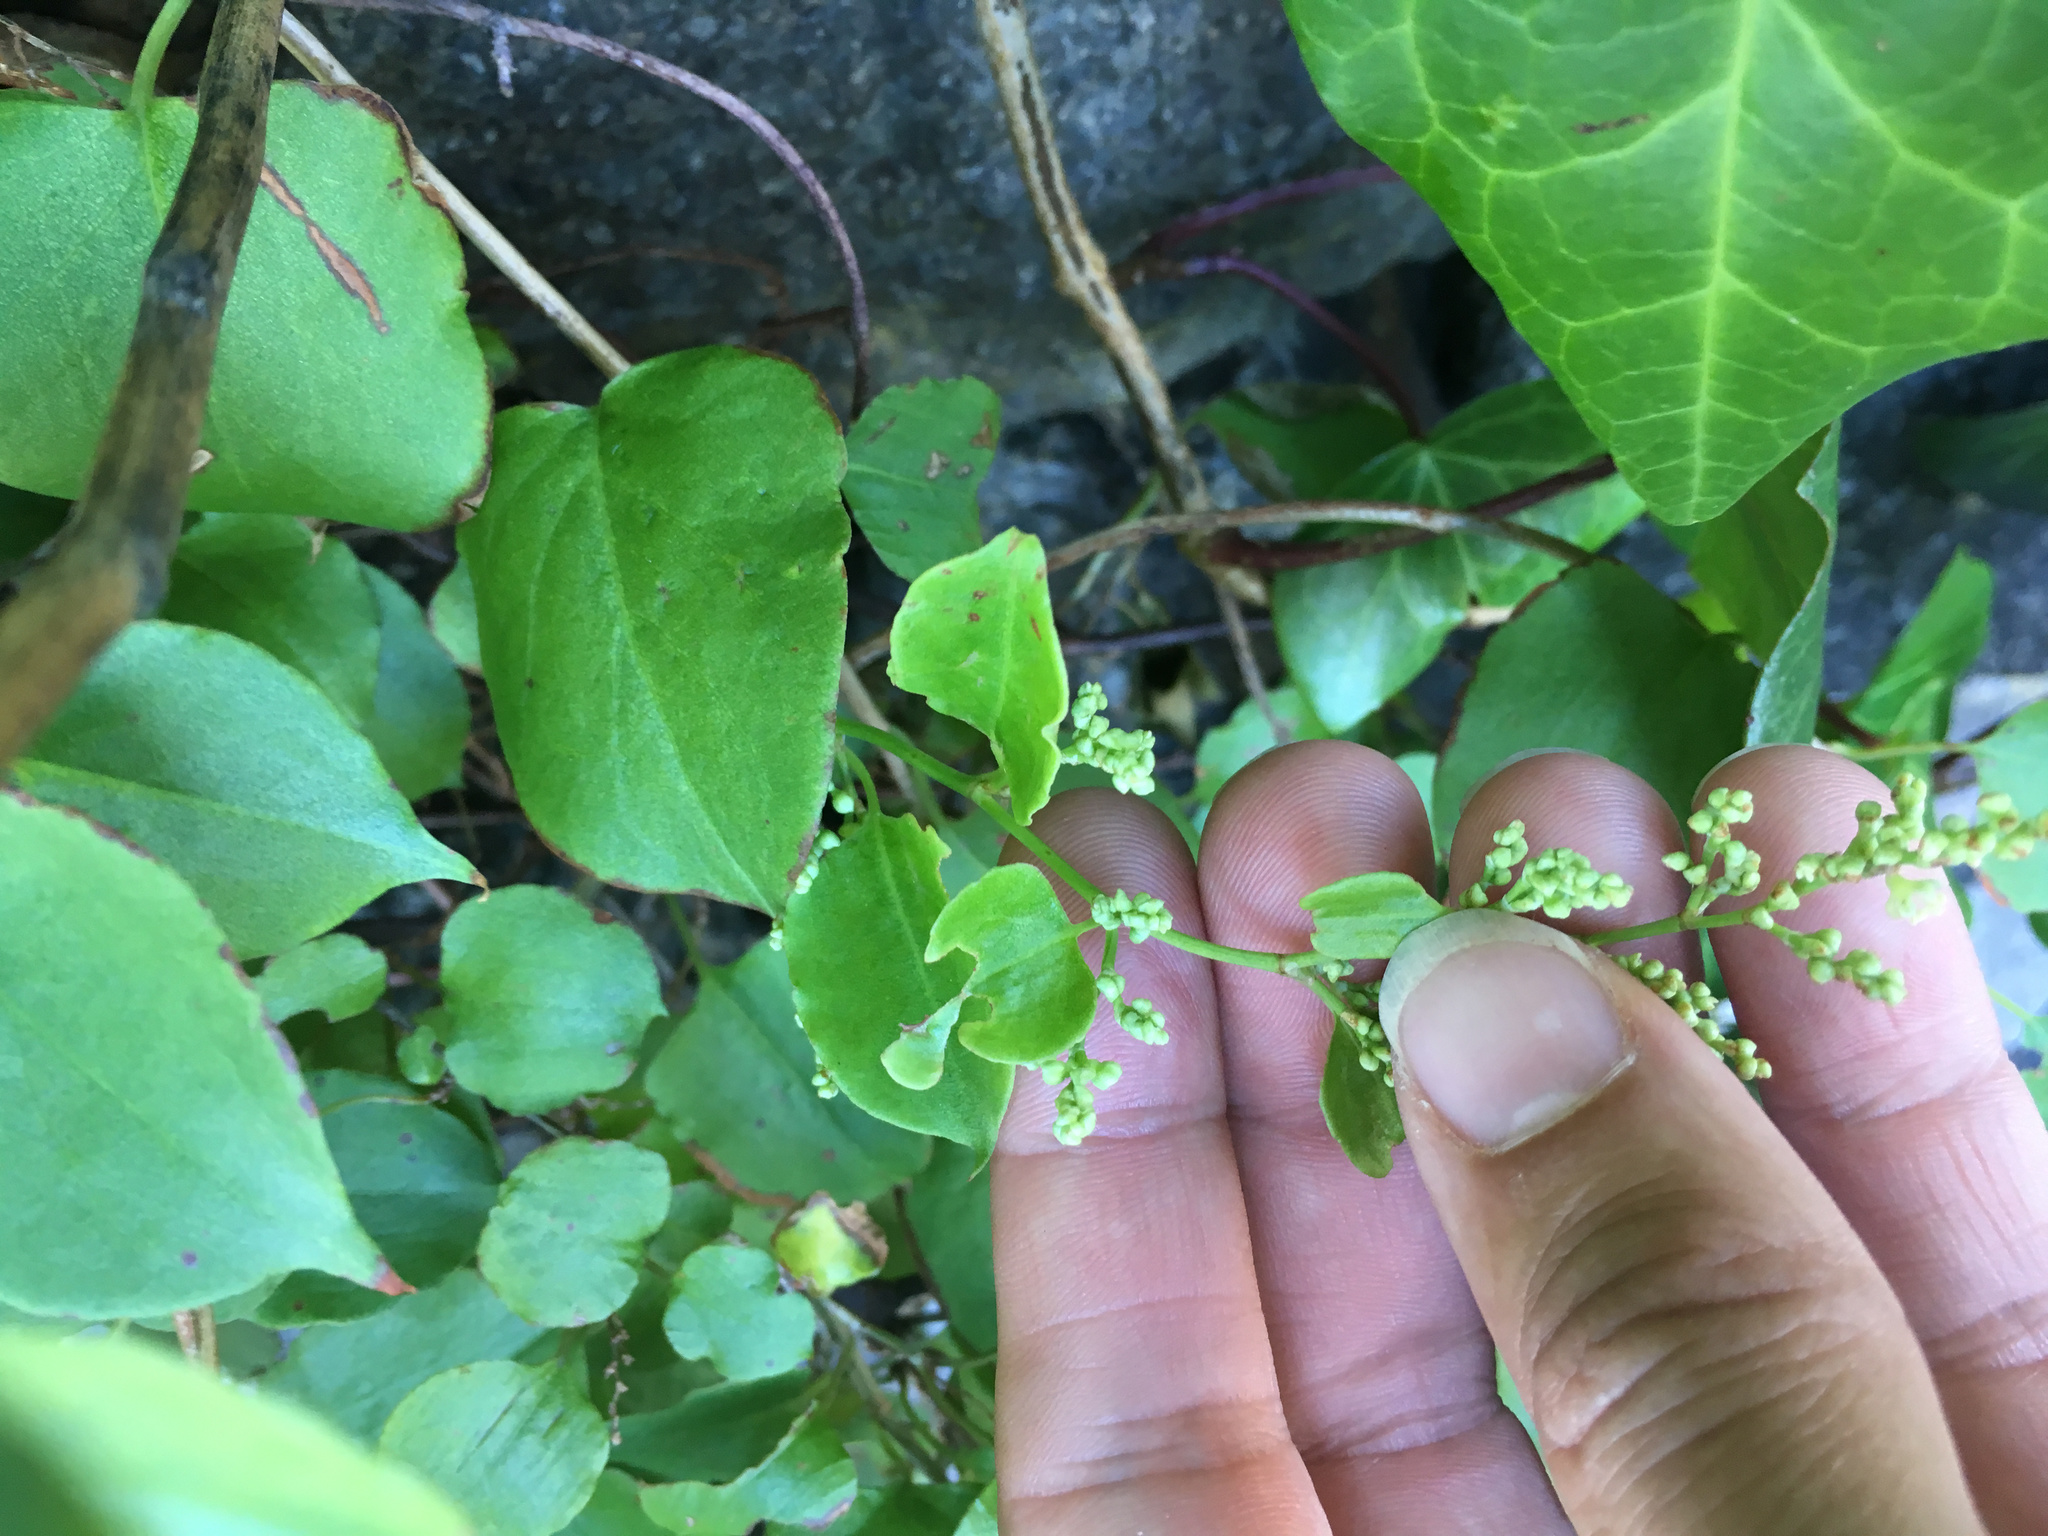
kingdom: Plantae
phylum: Tracheophyta
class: Magnoliopsida
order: Caryophyllales
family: Polygonaceae
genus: Muehlenbeckia
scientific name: Muehlenbeckia australis
